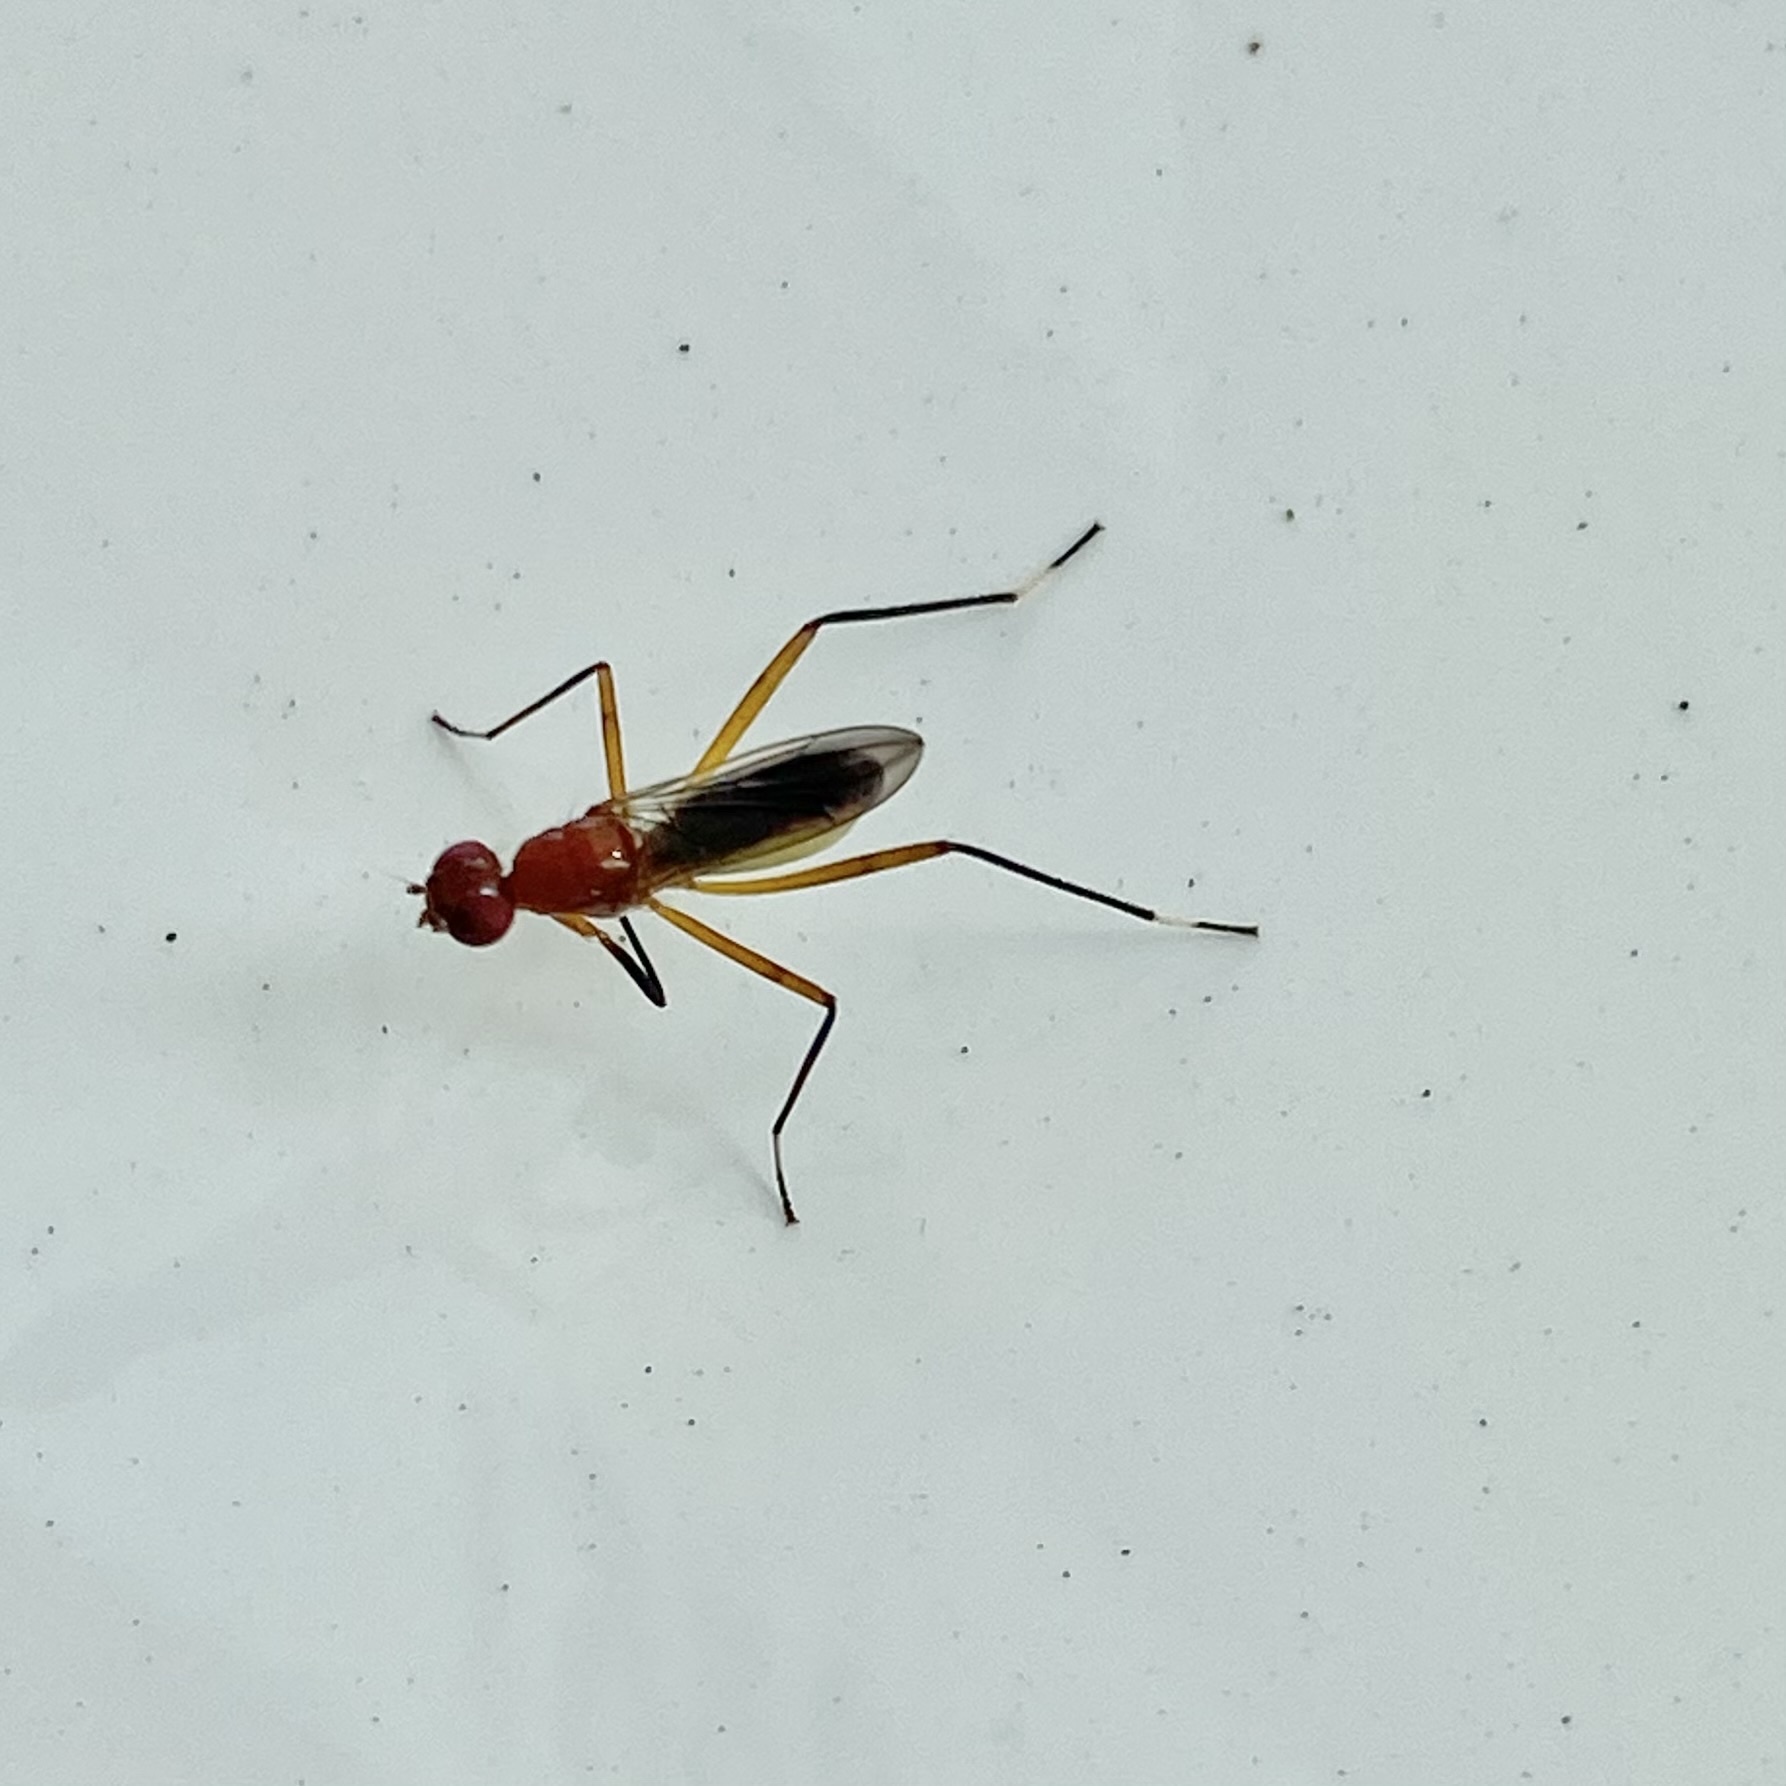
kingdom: Animalia
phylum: Arthropoda
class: Insecta
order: Diptera
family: Micropezidae
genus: Grallipeza
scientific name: Grallipeza nebulosa
